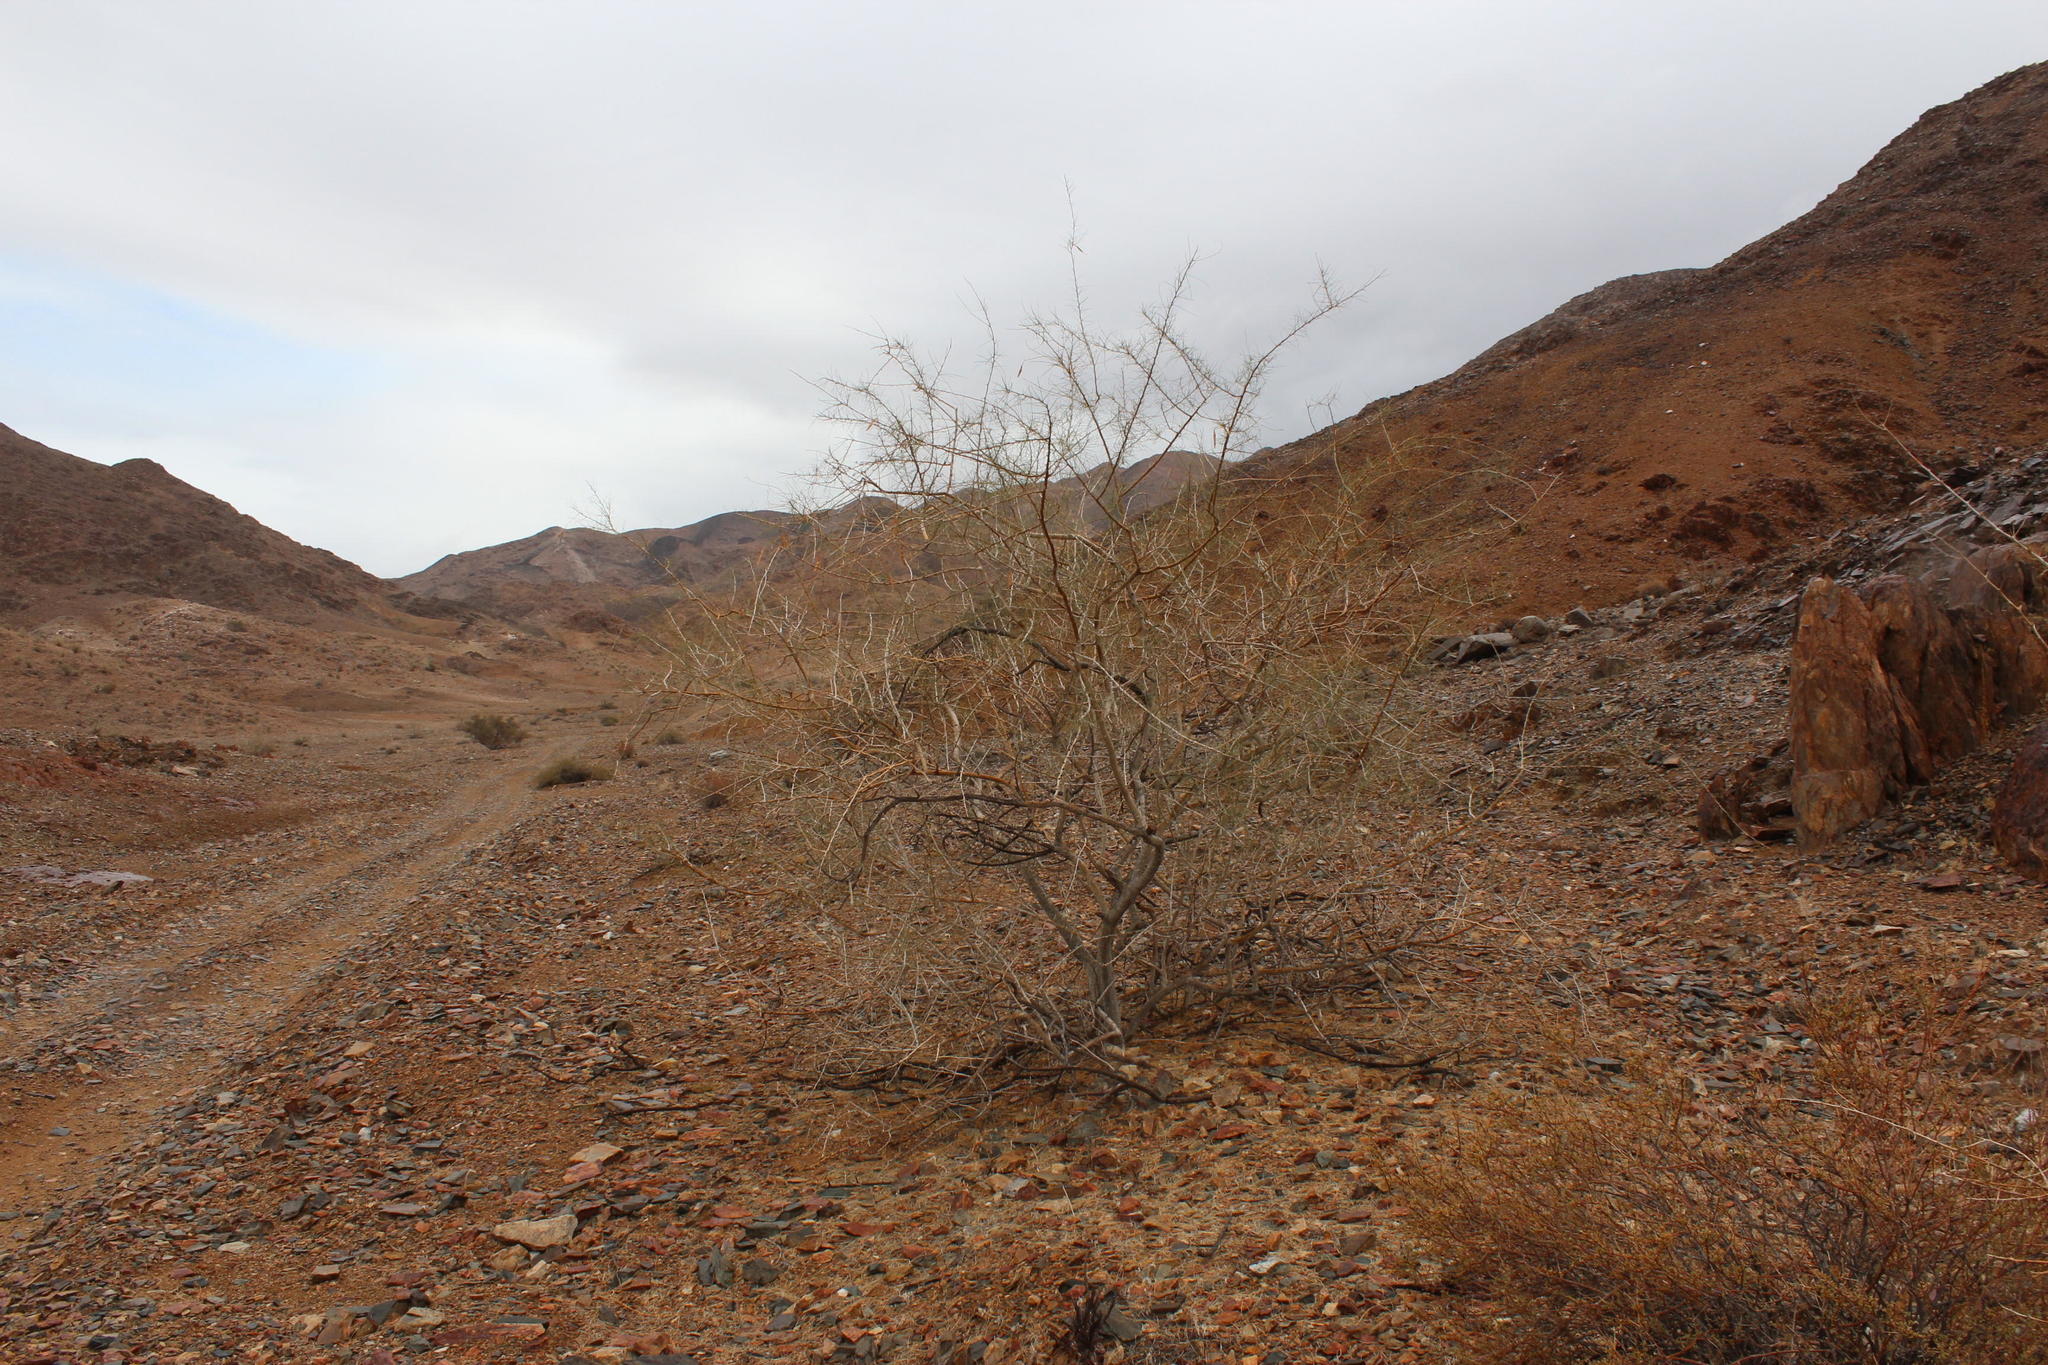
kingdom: Plantae
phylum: Tracheophyta
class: Magnoliopsida
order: Fabales
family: Fabaceae
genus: Parkinsonia
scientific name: Parkinsonia africana
